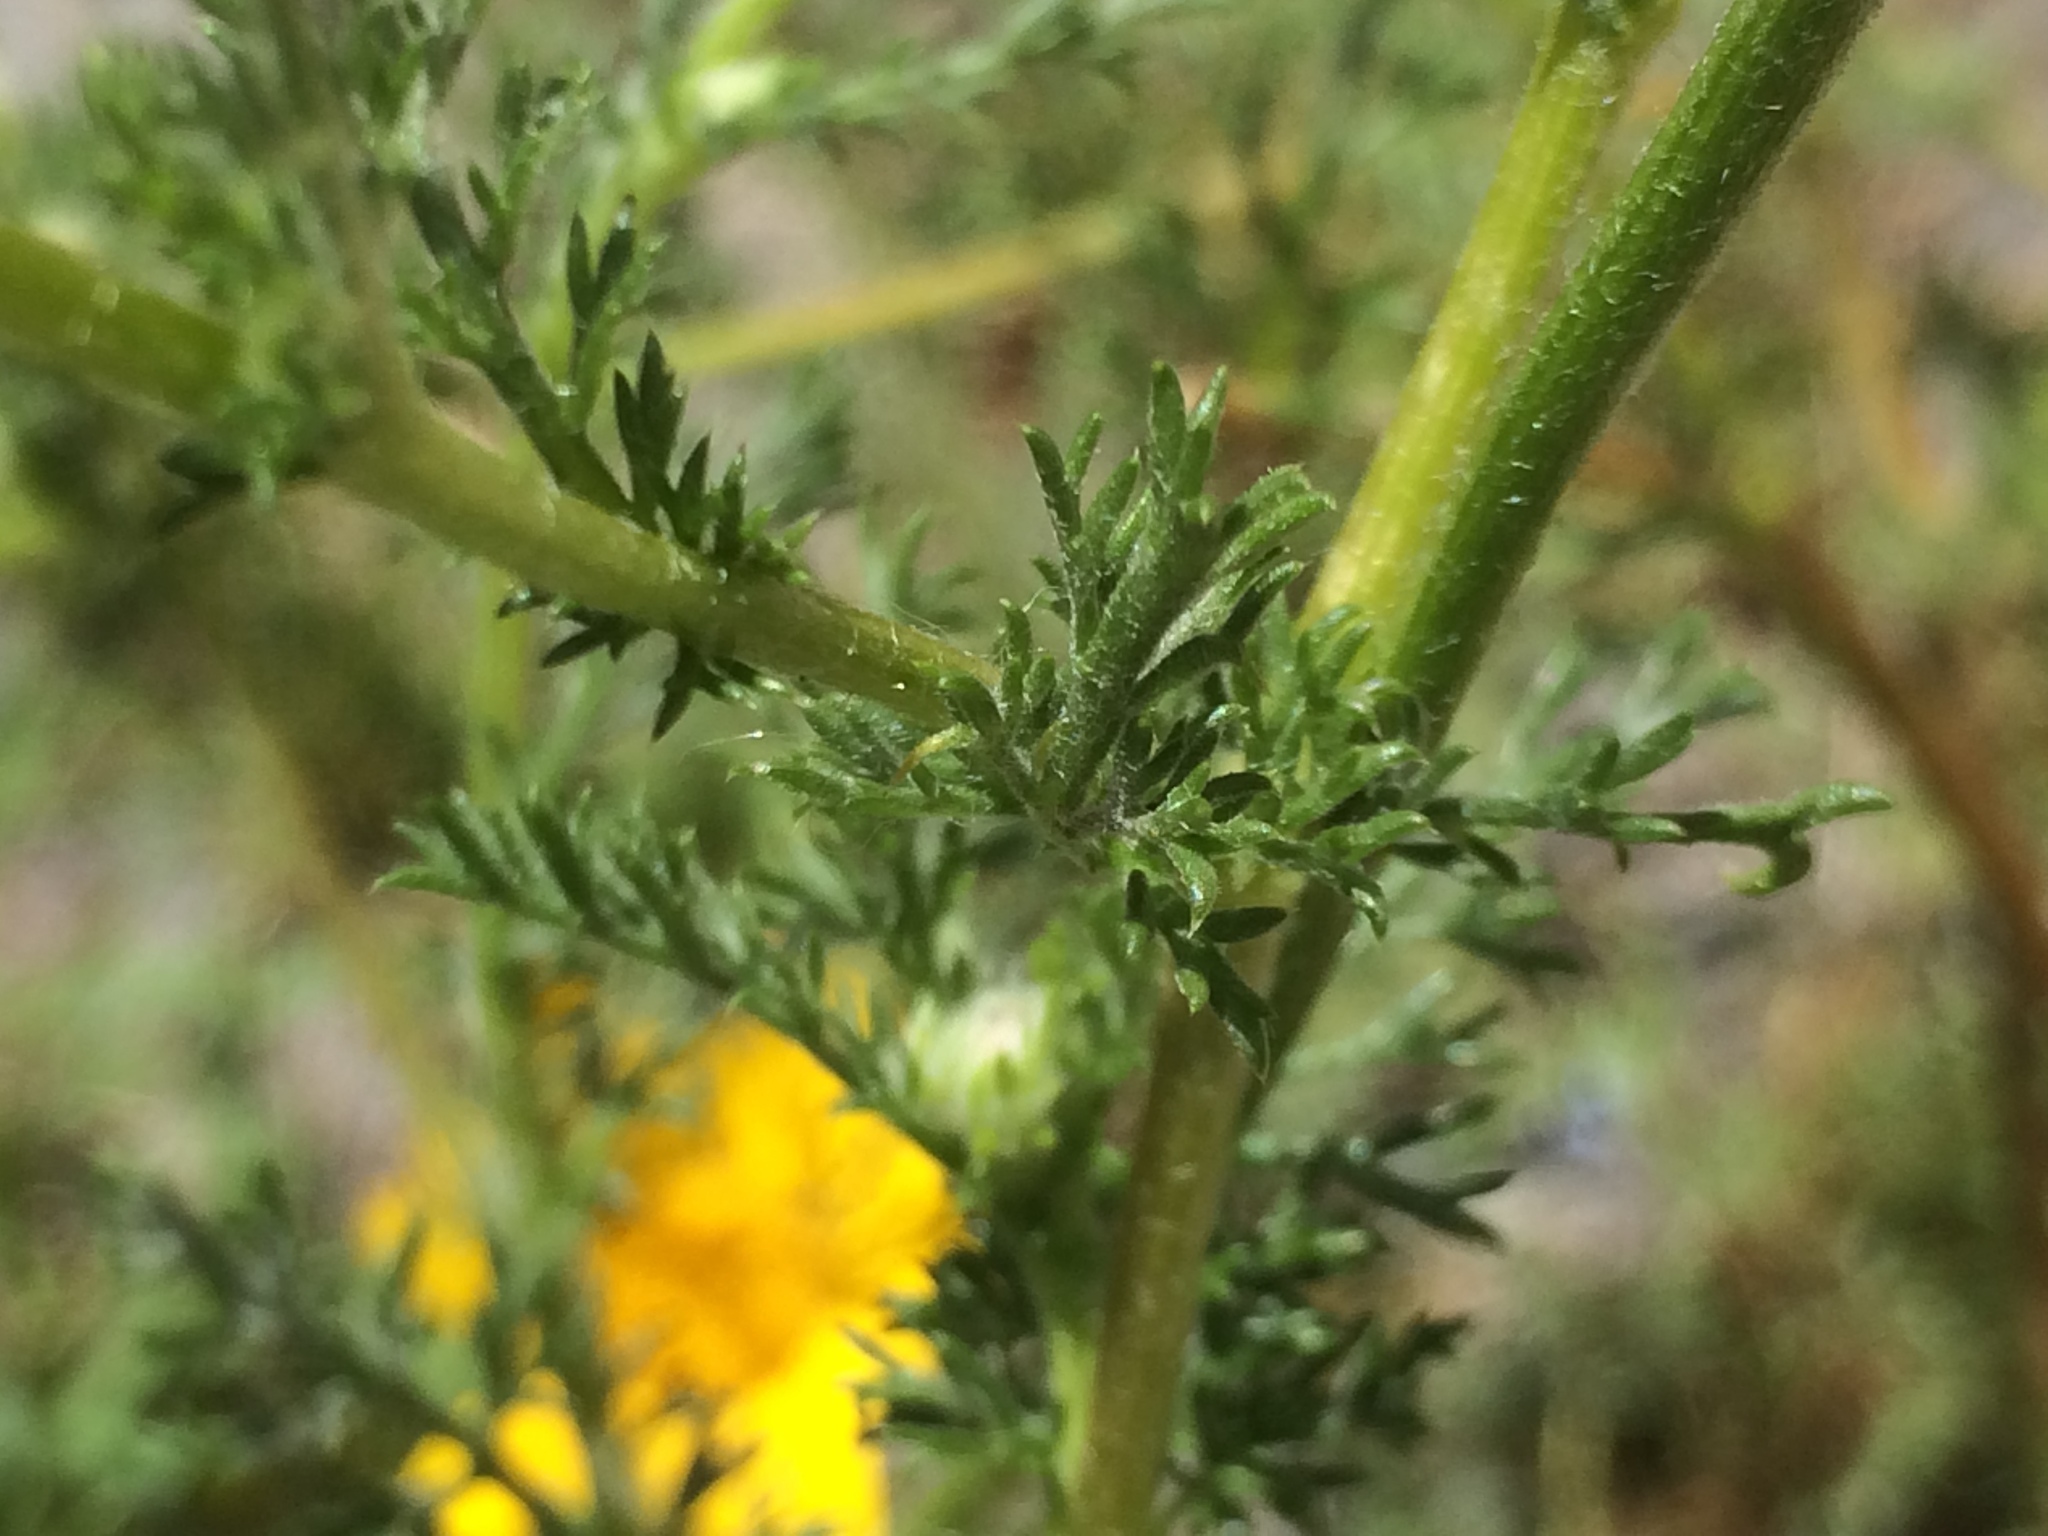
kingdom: Plantae
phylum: Tracheophyta
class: Magnoliopsida
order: Asterales
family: Asteraceae
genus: Glebionis
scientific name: Glebionis coronaria
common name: Crowndaisy
